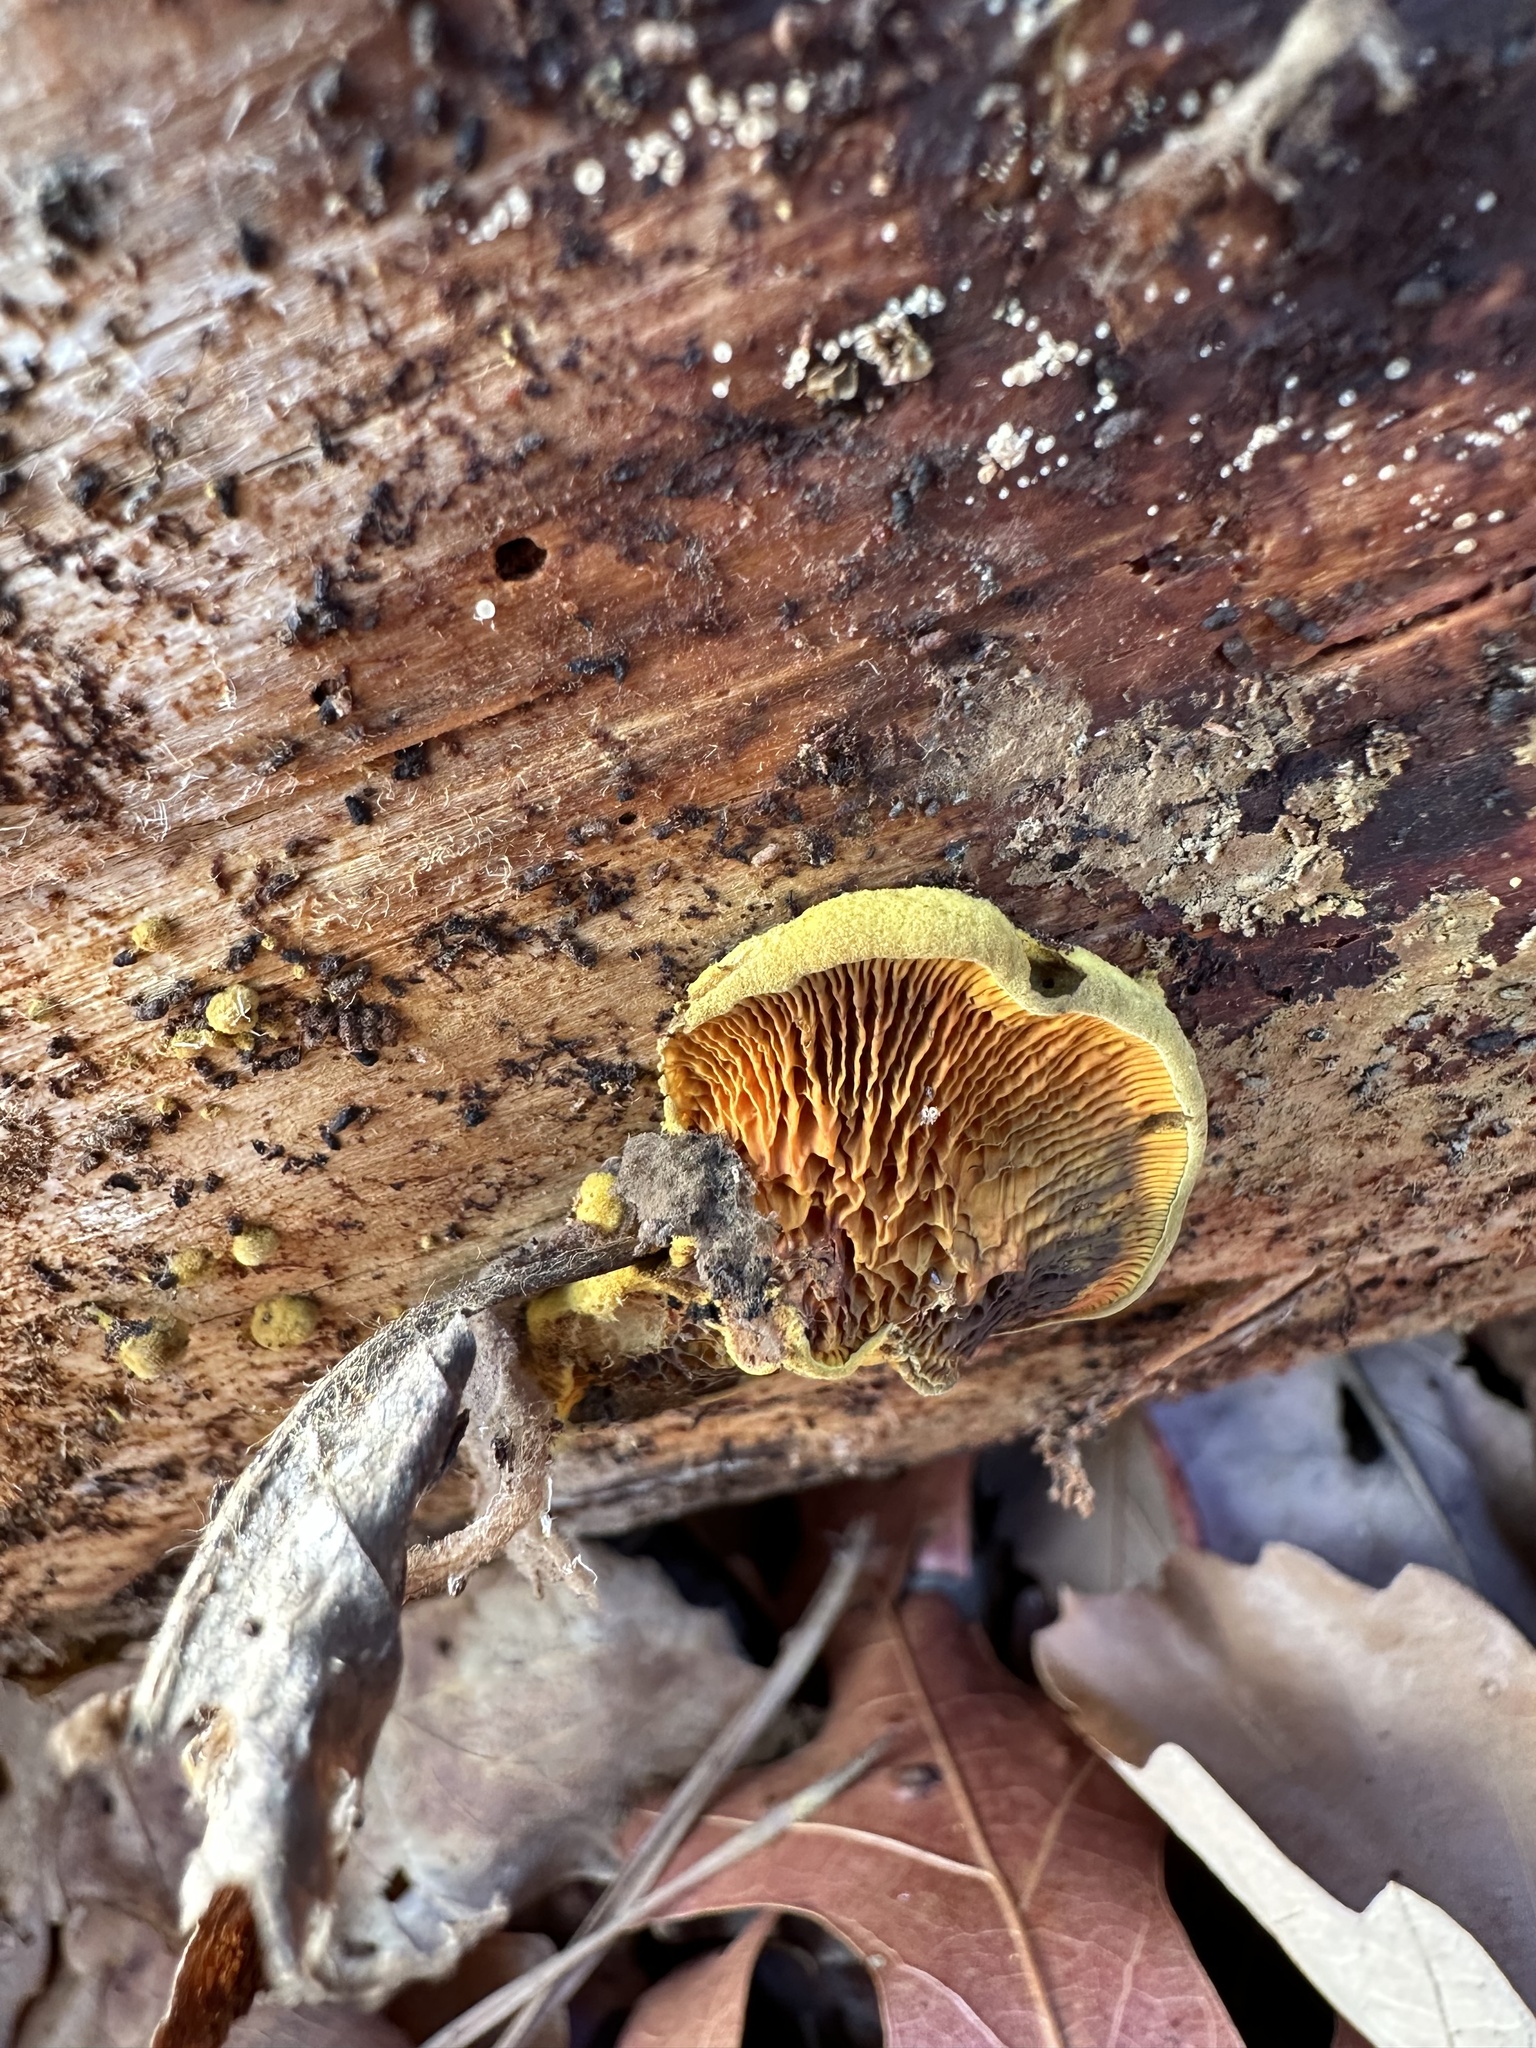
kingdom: Fungi
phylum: Basidiomycota
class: Agaricomycetes
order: Boletales
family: Paxillaceae
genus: Meiorganum
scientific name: Meiorganum curtisii
